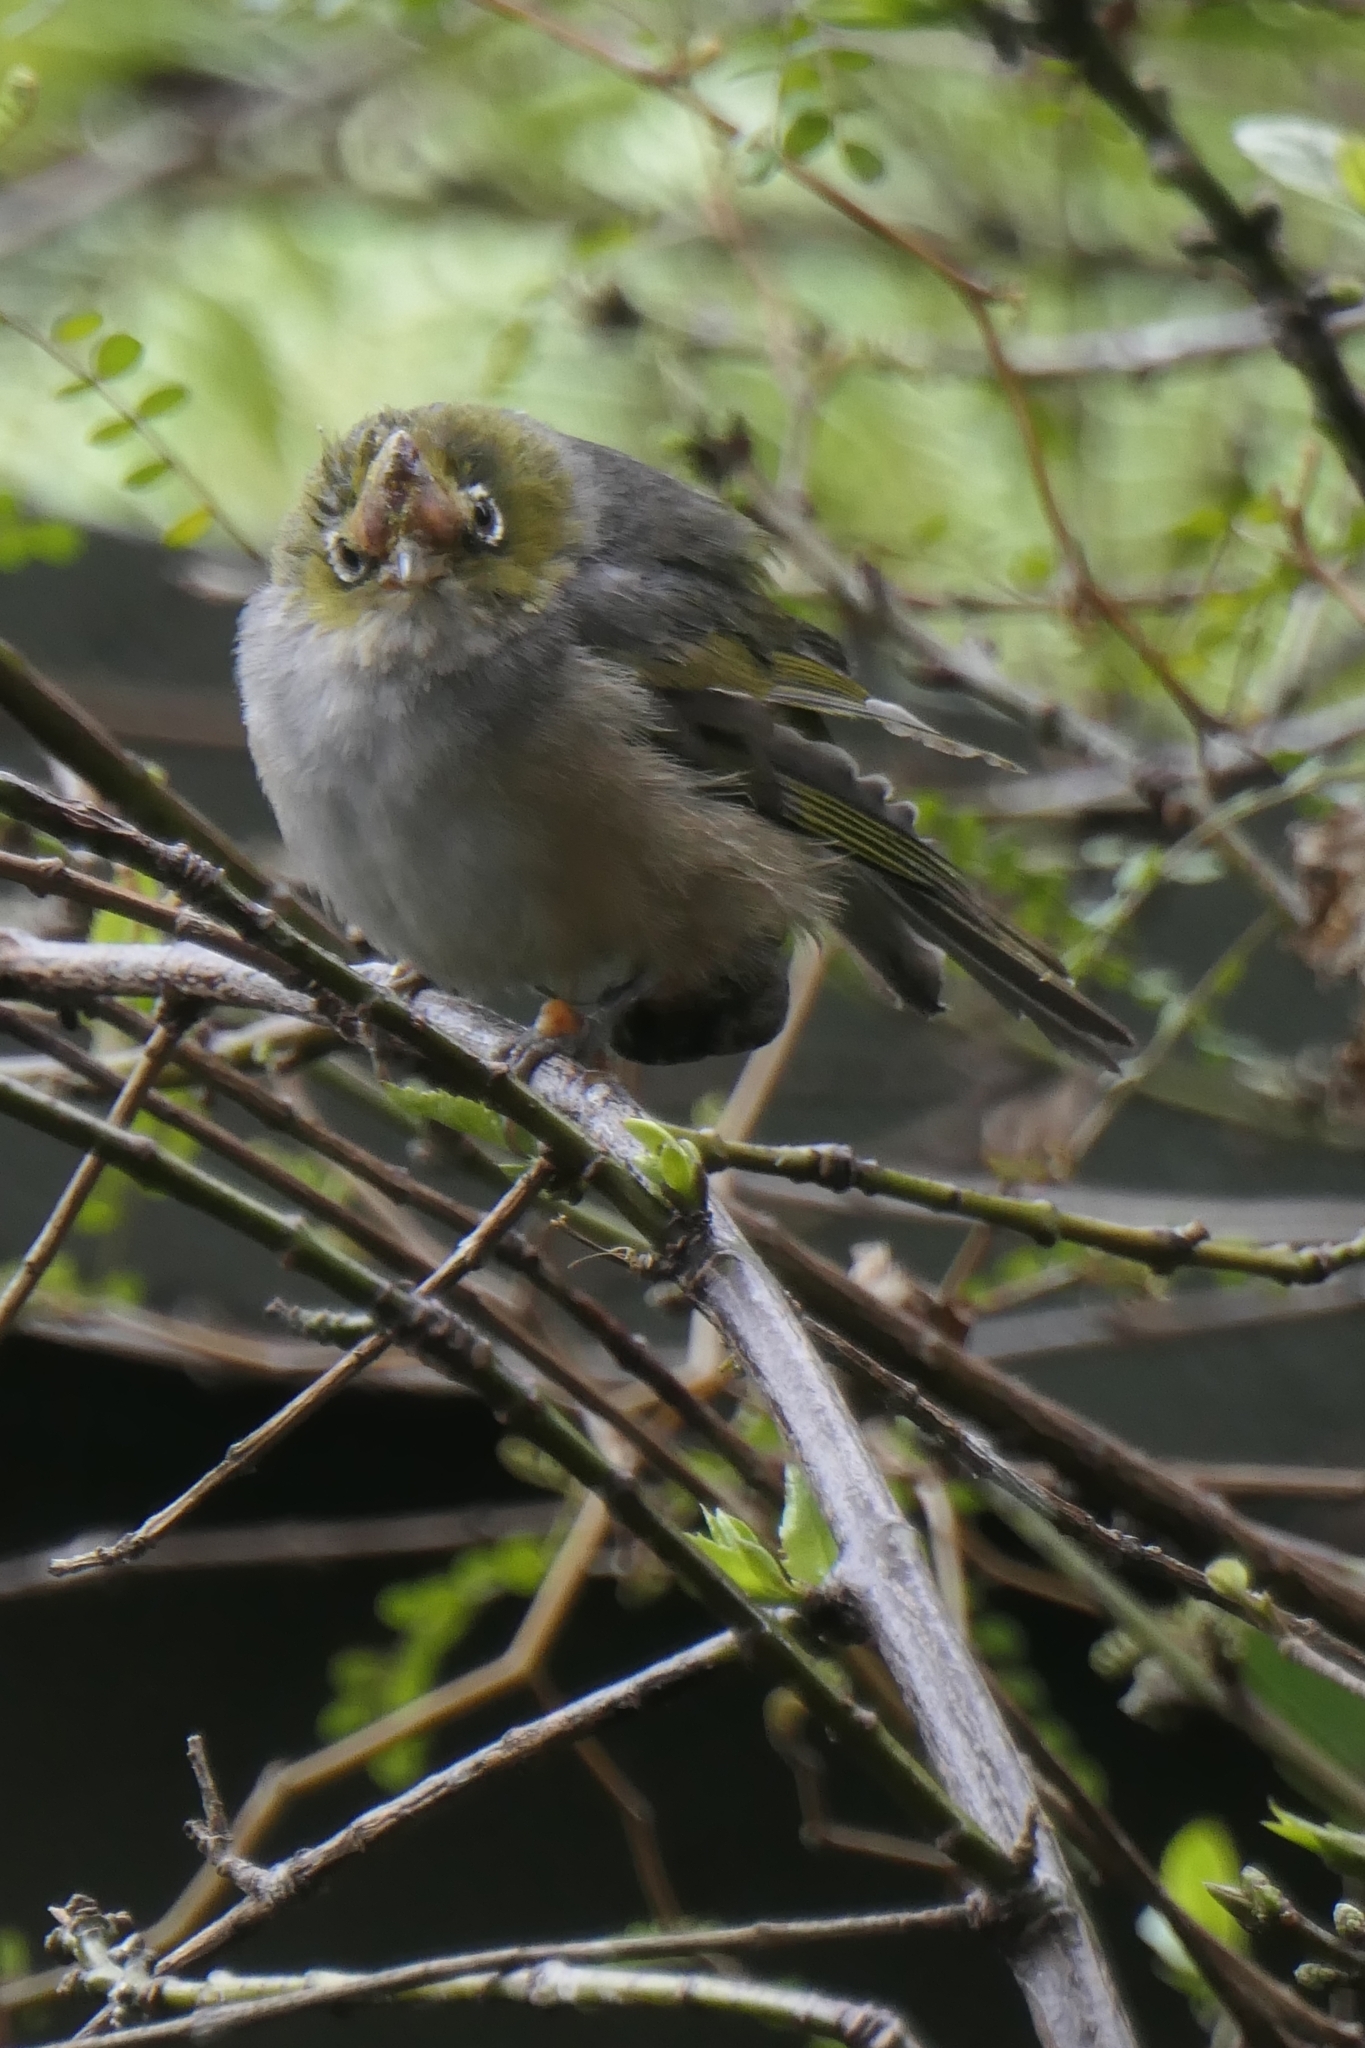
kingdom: Viruses
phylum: Nucleocytoviricota
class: Pokkesviricetes
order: Chitovirales
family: Poxviridae
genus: Avipoxvirus
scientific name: Avipoxvirus
